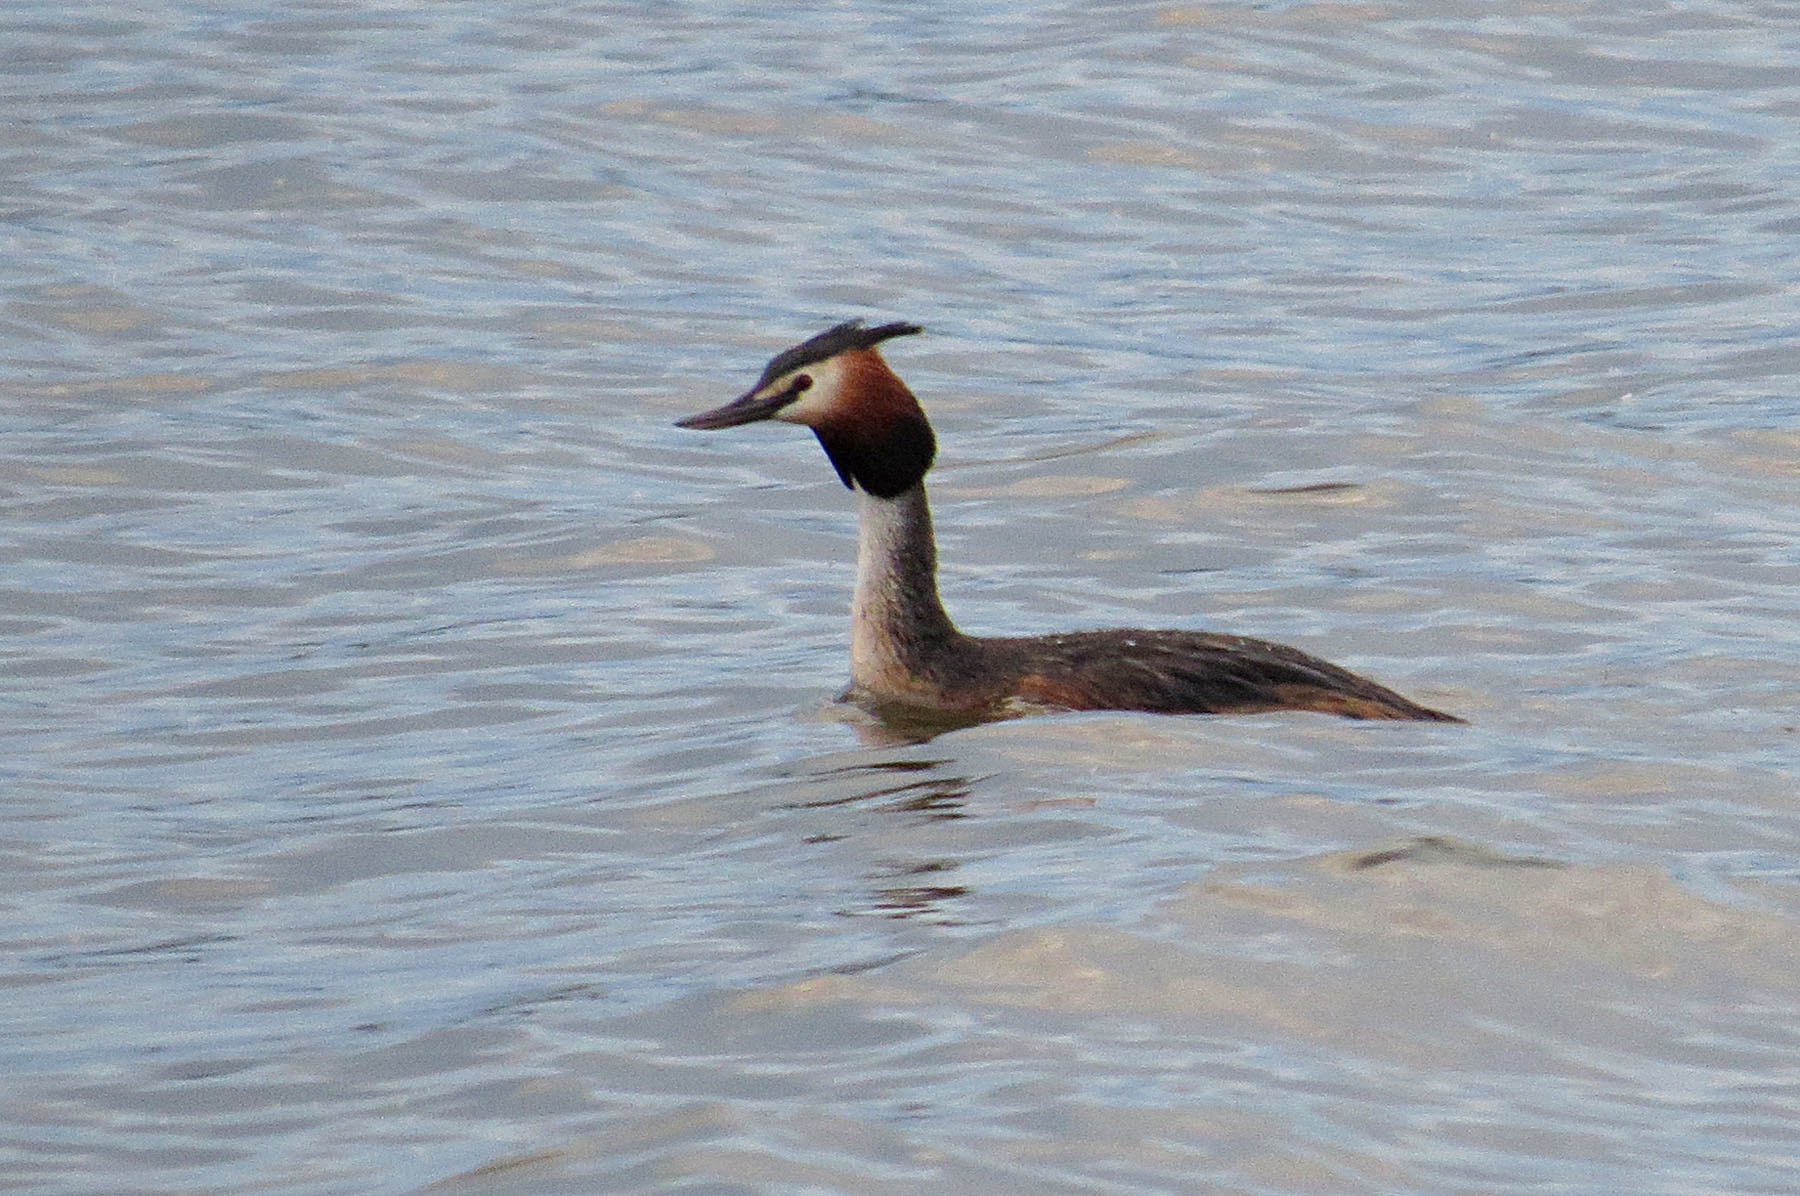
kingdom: Animalia
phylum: Chordata
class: Aves
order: Podicipediformes
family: Podicipedidae
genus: Podiceps
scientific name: Podiceps cristatus
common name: Great crested grebe
